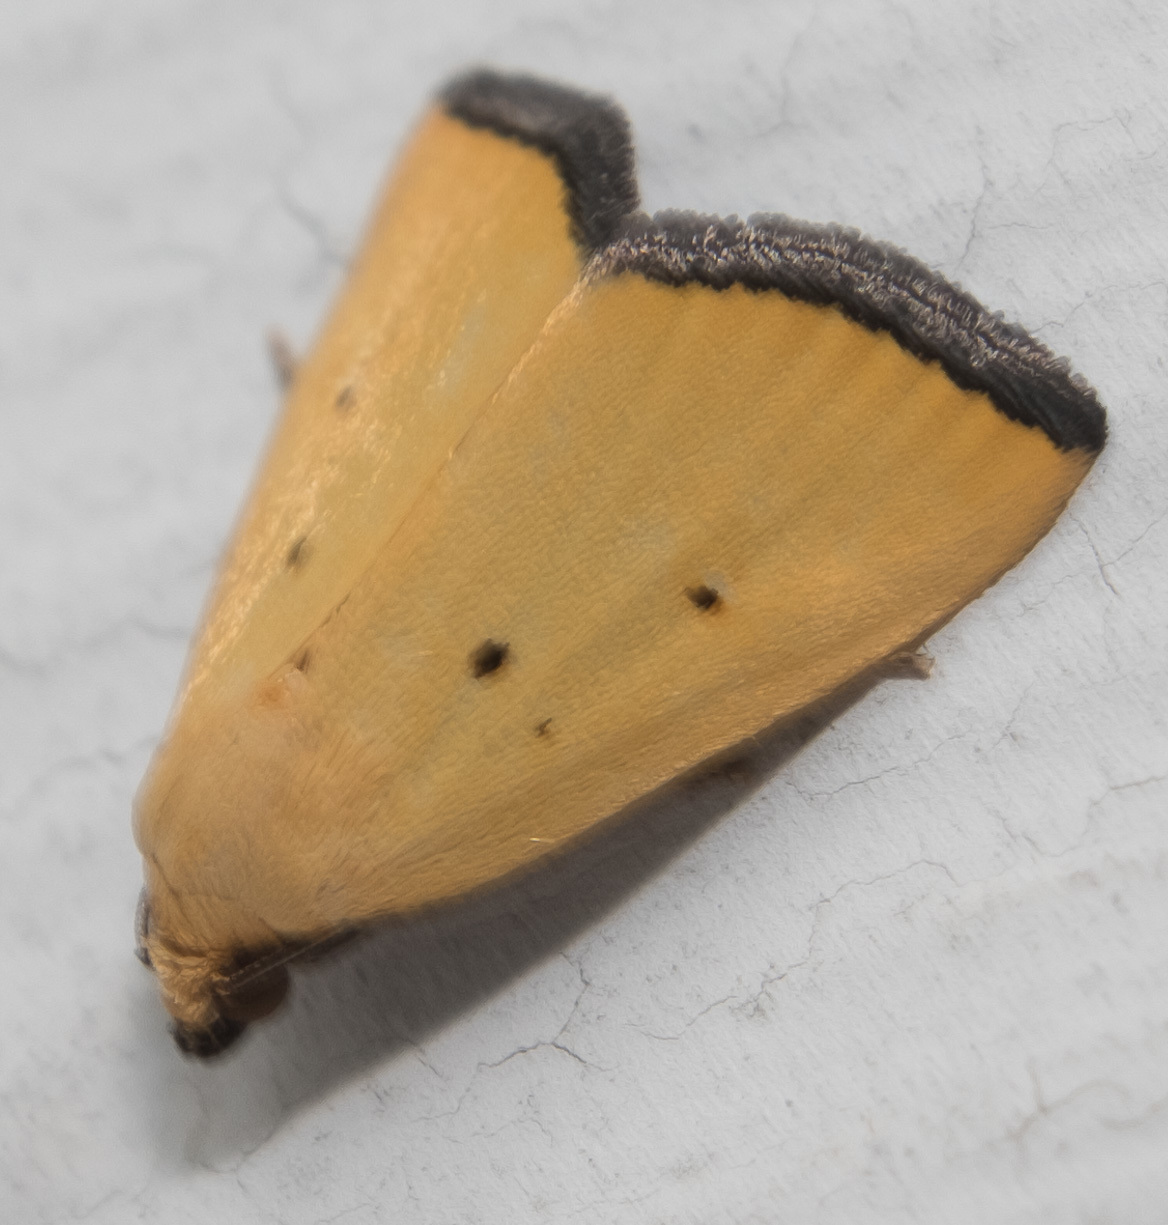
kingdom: Animalia
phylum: Arthropoda
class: Insecta
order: Lepidoptera
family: Noctuidae
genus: Marimatha
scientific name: Marimatha nigrofimbria
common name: Black-bordered lemon moth
